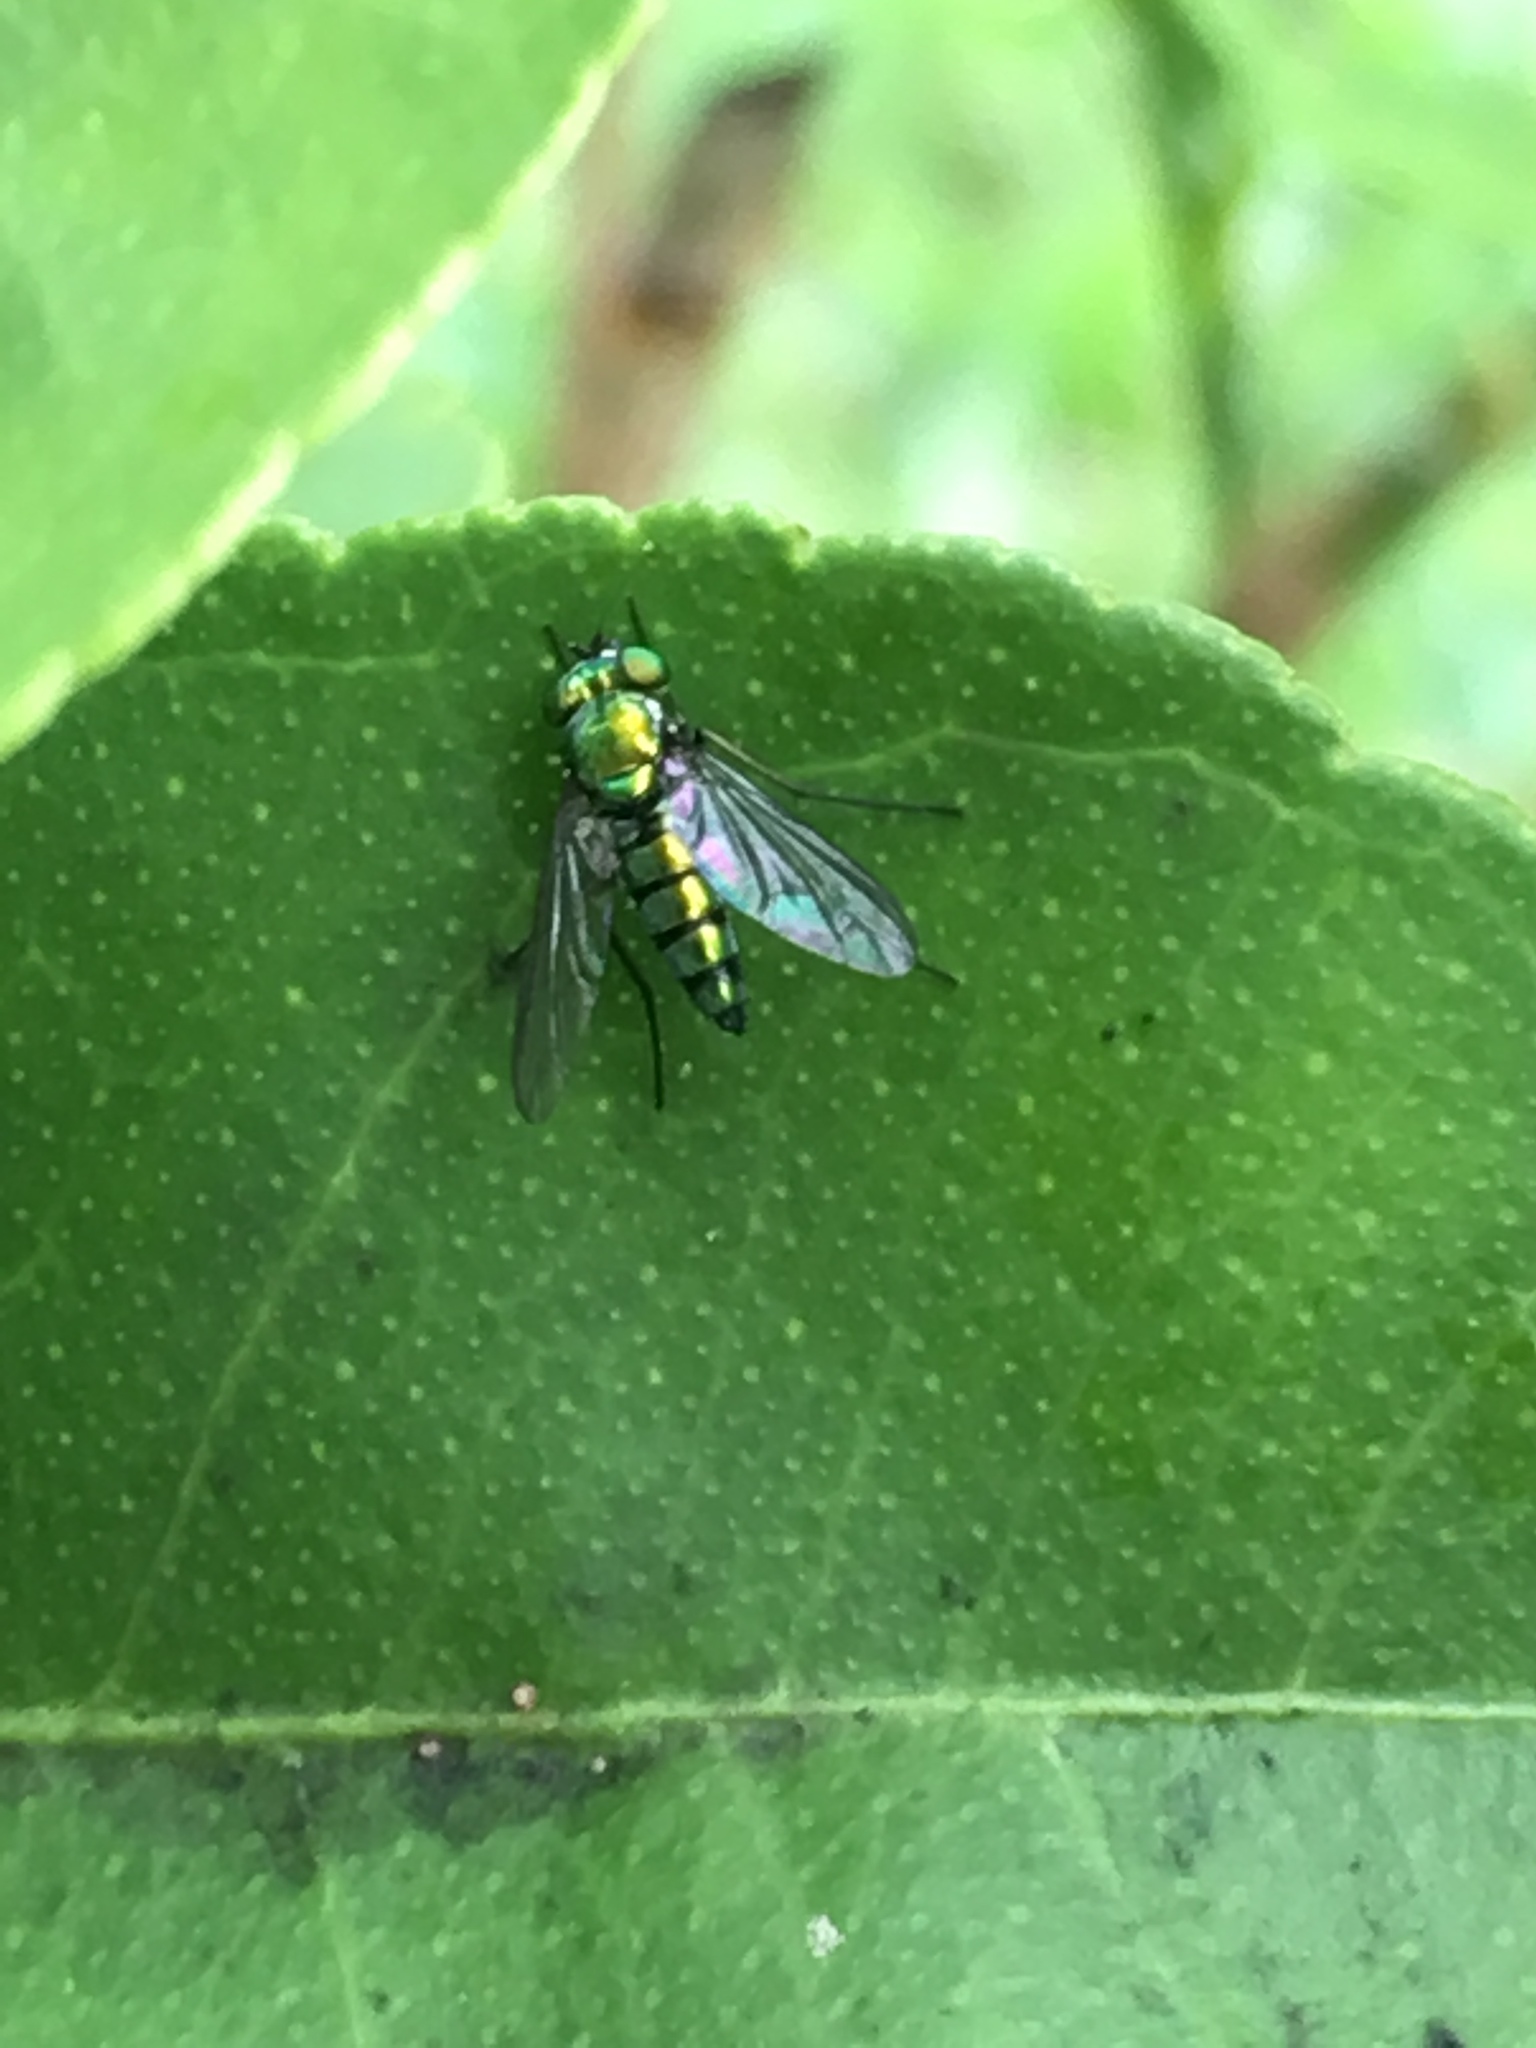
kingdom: Animalia
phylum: Arthropoda
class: Insecta
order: Diptera
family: Dolichopodidae
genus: Condylostylus
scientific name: Condylostylus longicornis
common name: Long-legged fly
